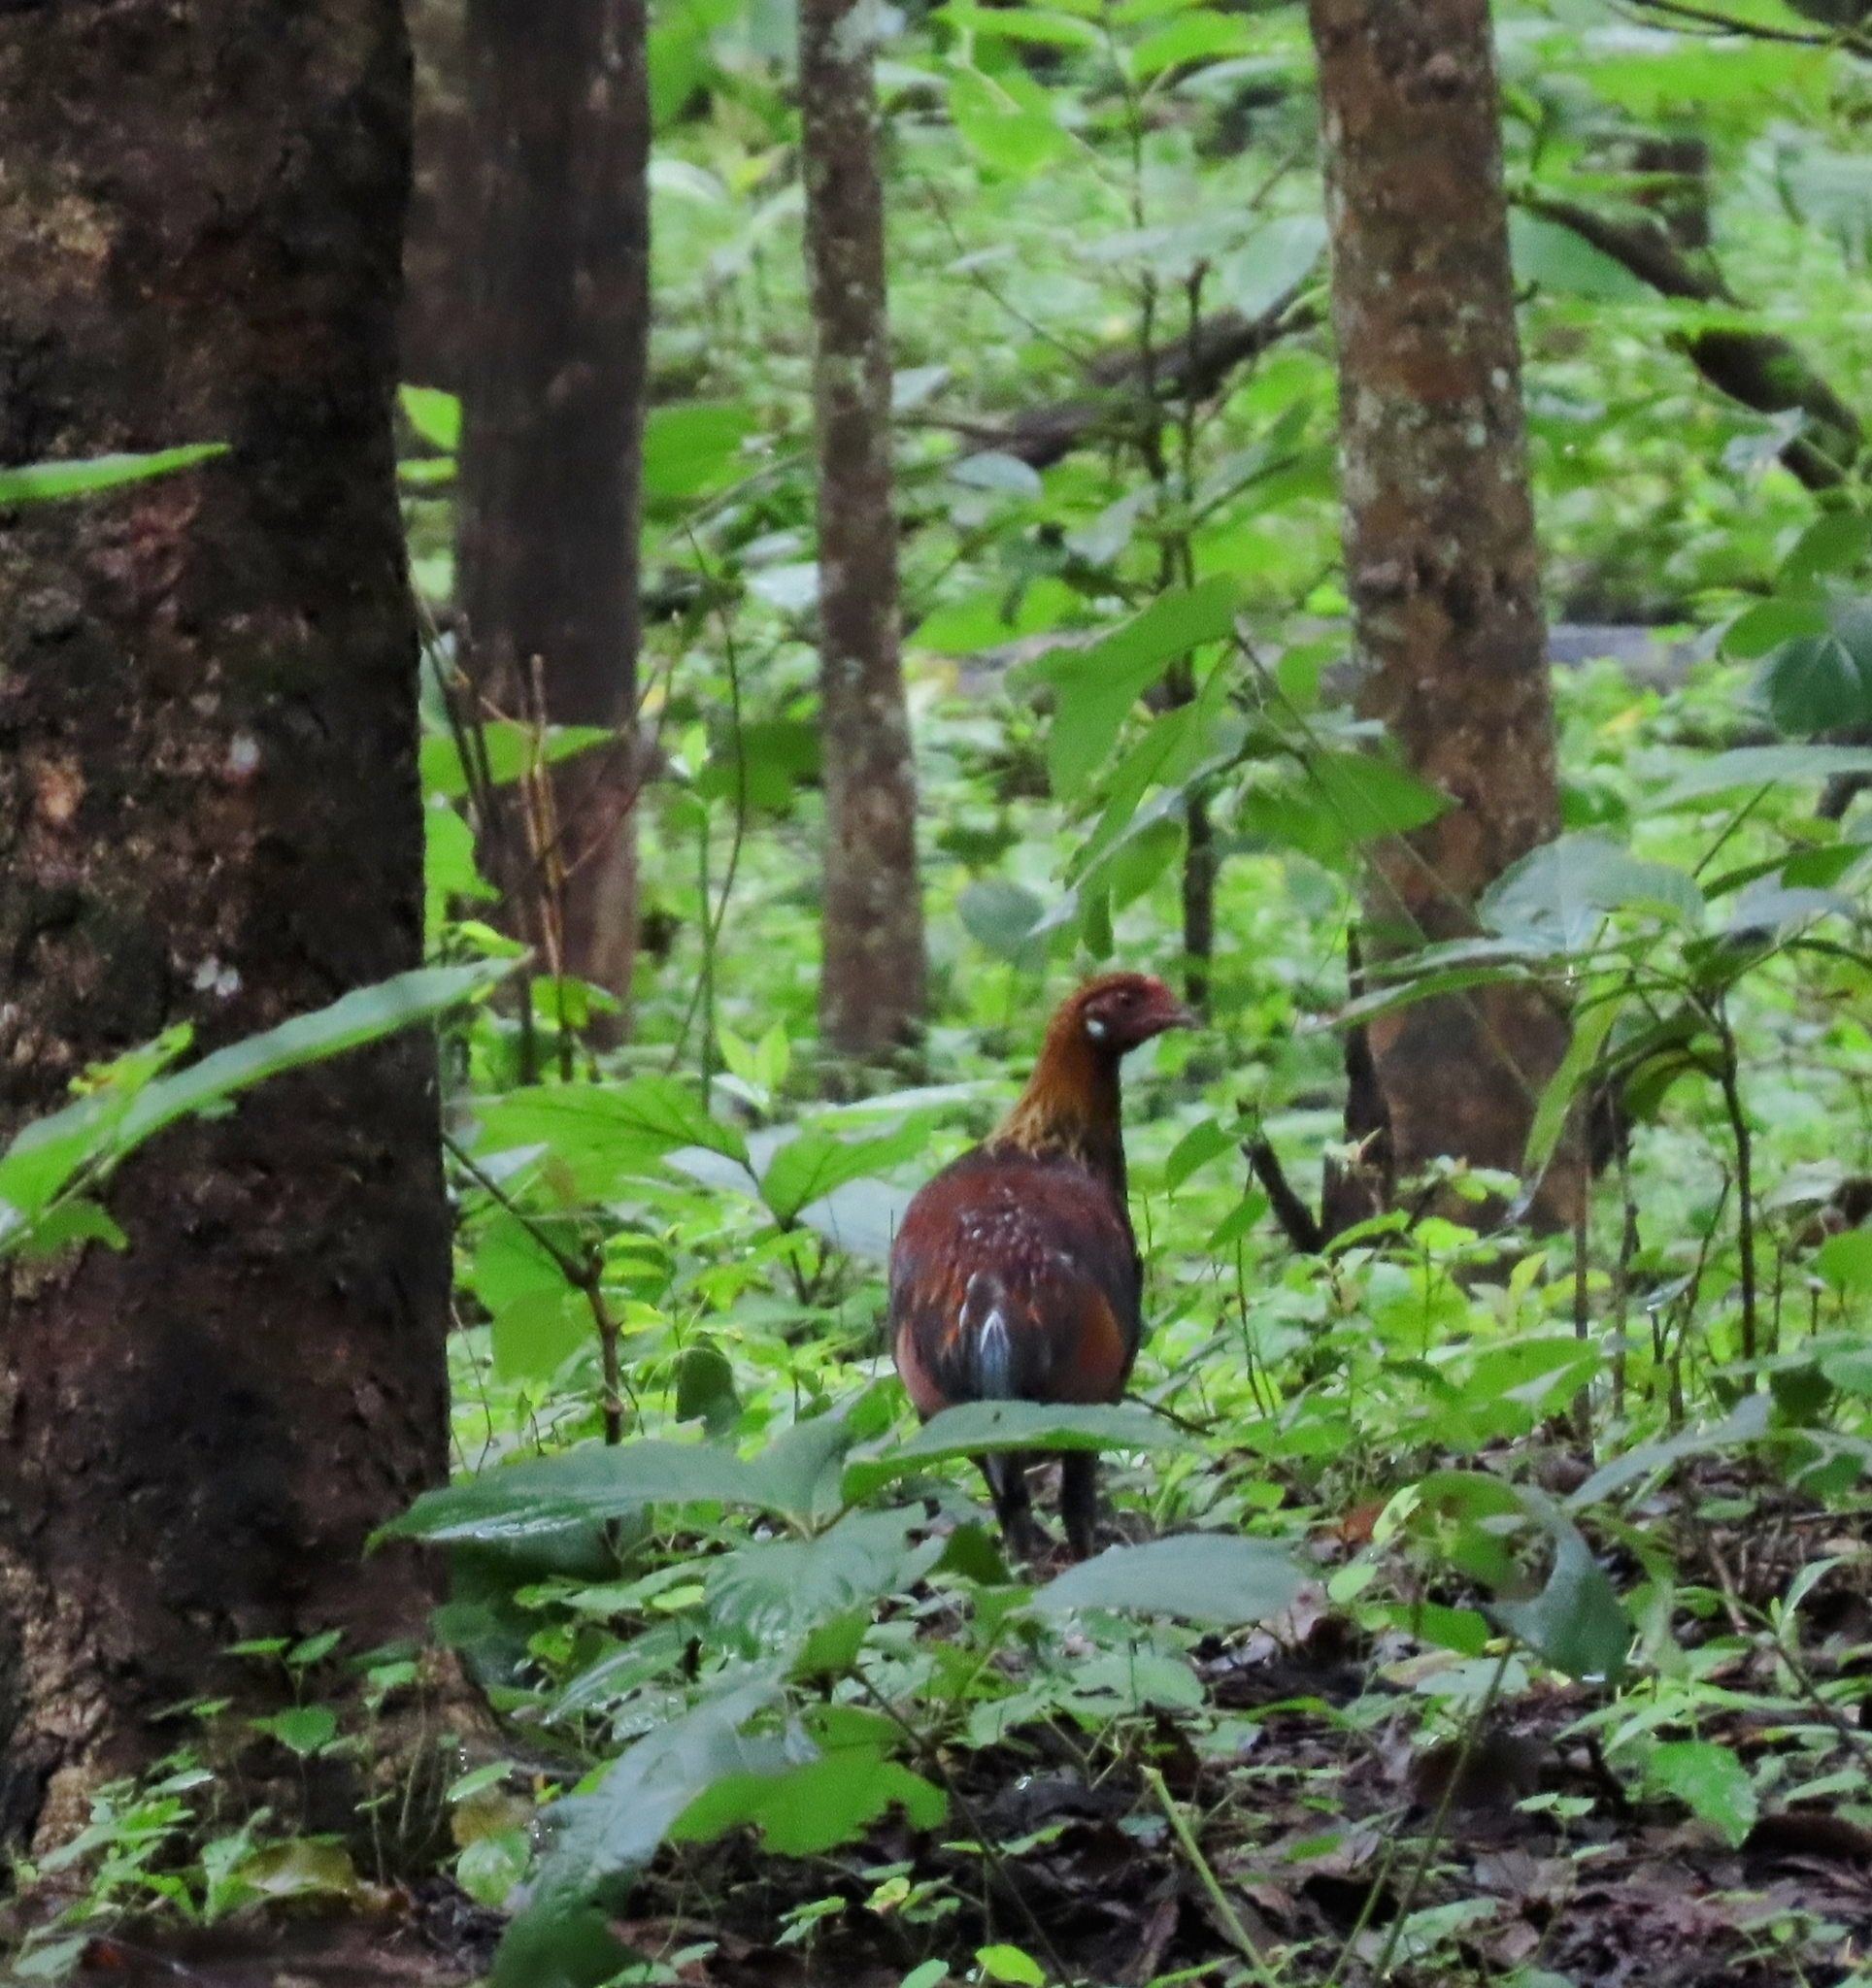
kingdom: Animalia
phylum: Chordata
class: Aves
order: Galliformes
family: Phasianidae
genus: Gallus
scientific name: Gallus gallus
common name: Red junglefowl
